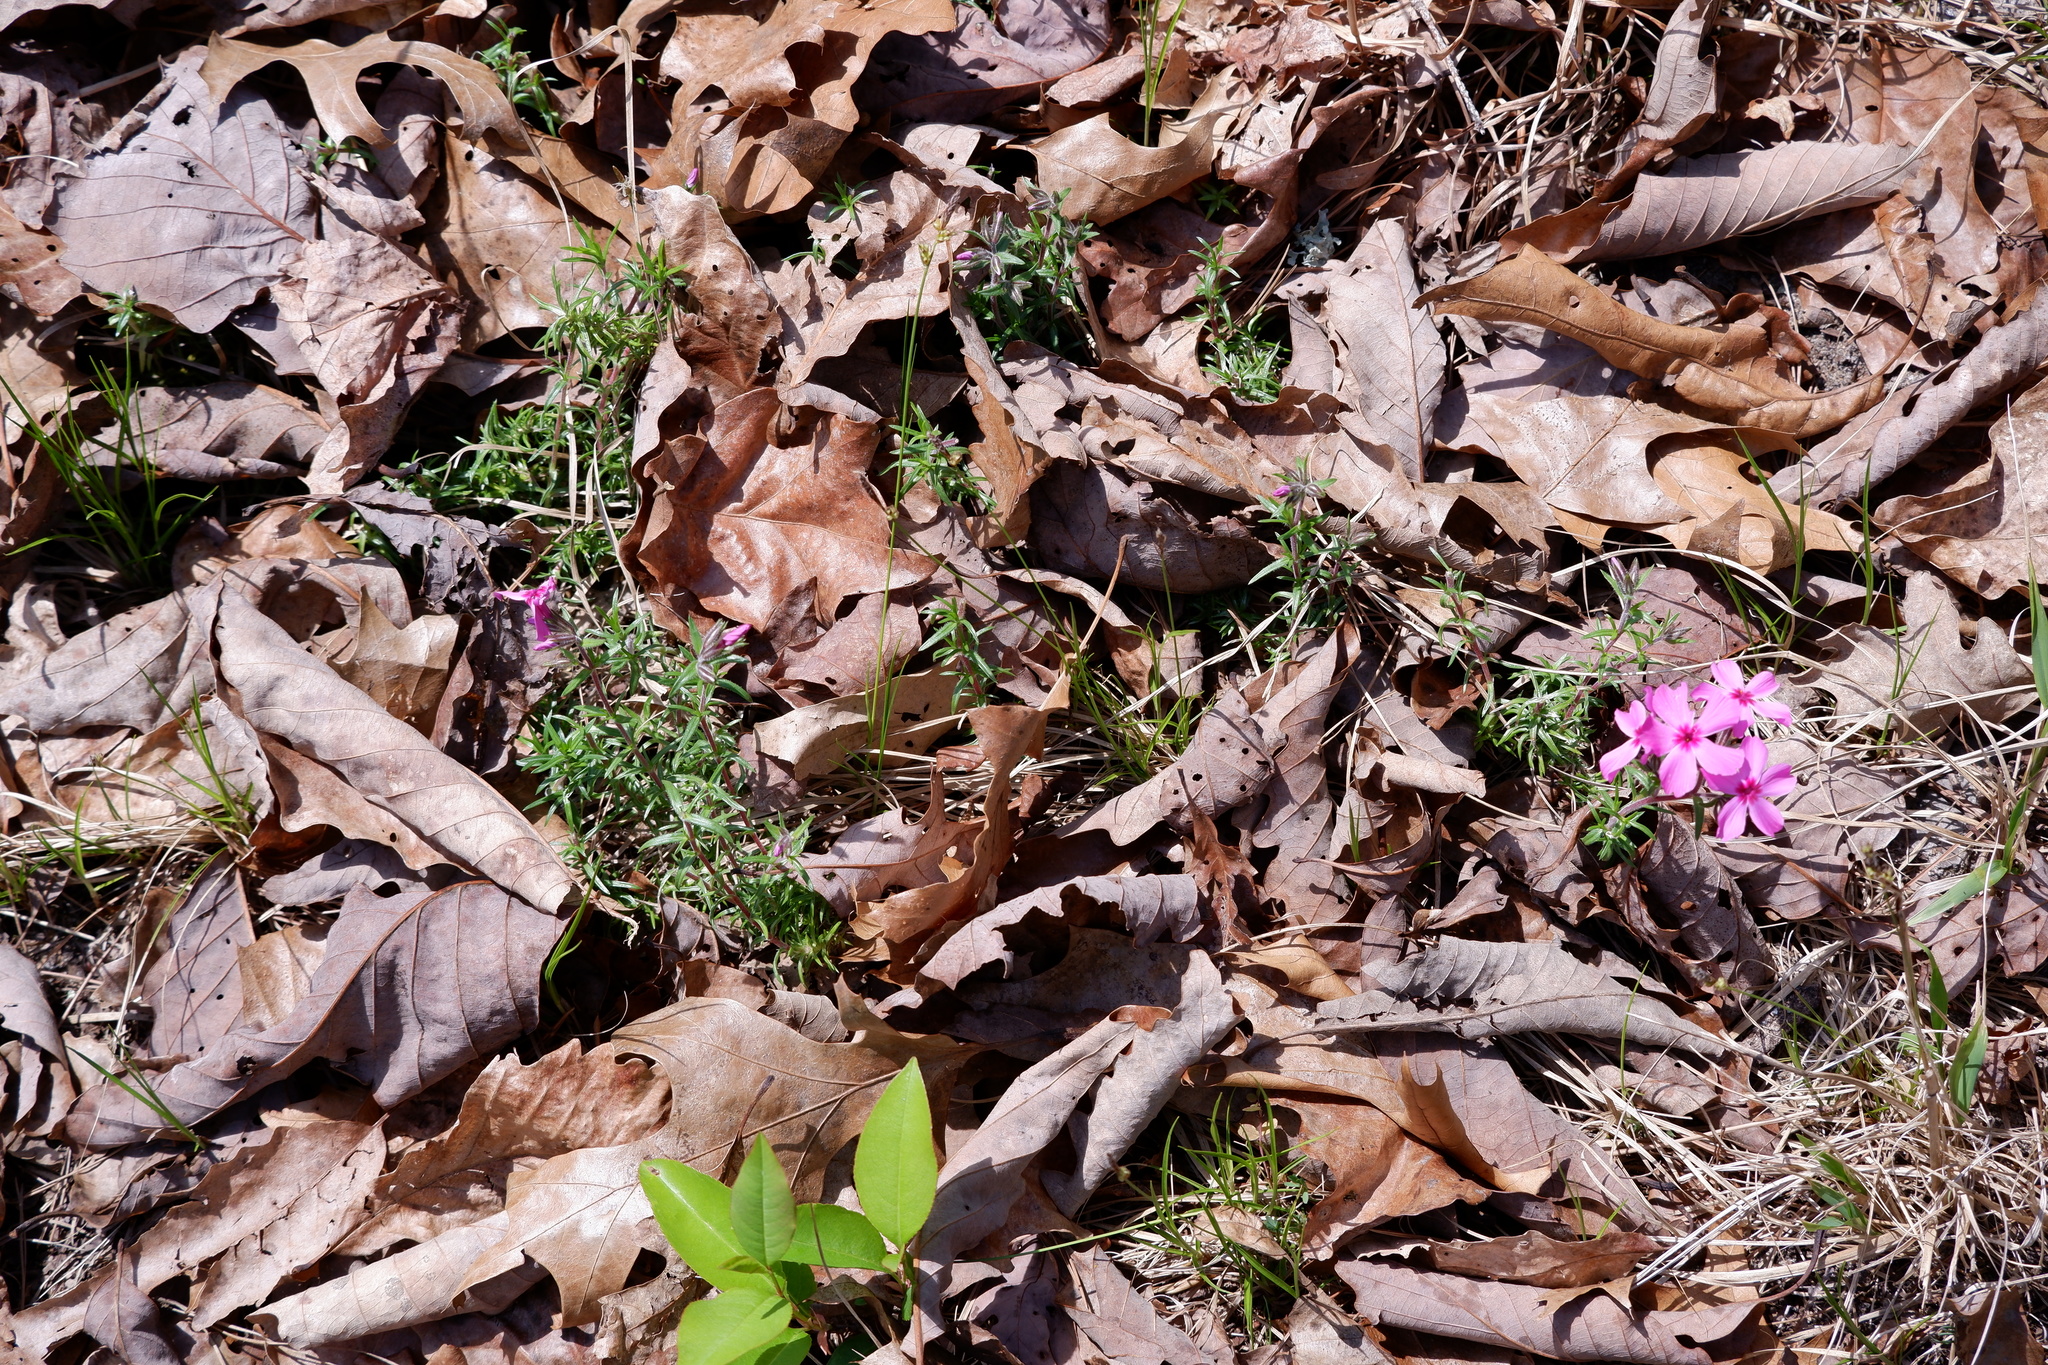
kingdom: Plantae
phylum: Tracheophyta
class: Magnoliopsida
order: Ericales
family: Polemoniaceae
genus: Phlox
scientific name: Phlox subulata
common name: Moss phlox
